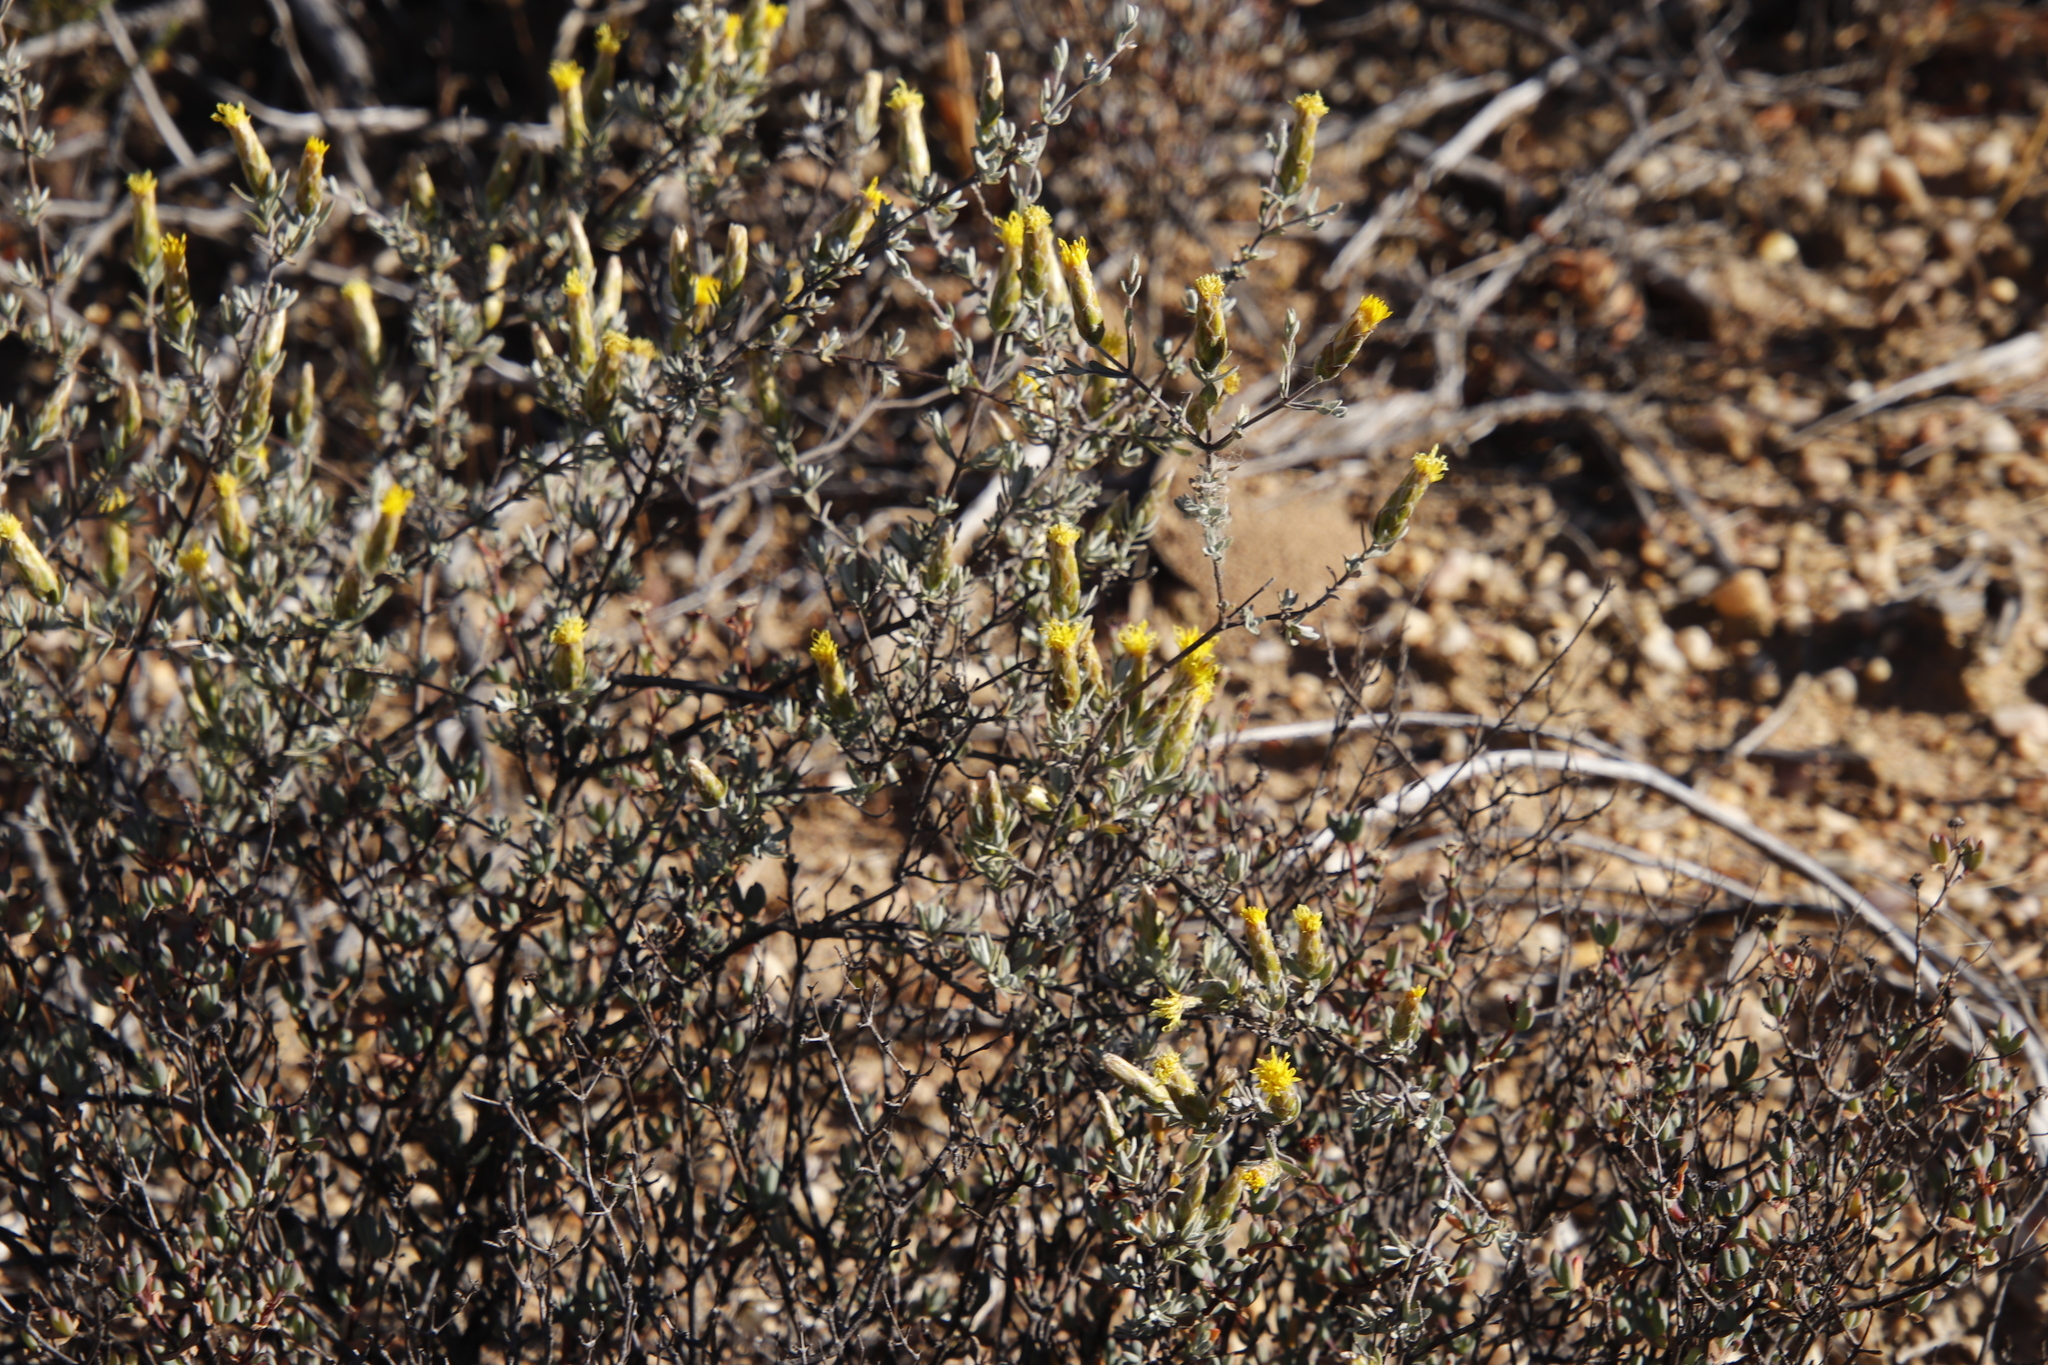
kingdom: Plantae
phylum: Tracheophyta
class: Magnoliopsida
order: Asterales
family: Asteraceae
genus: Pteronia
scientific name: Pteronia cinerea
